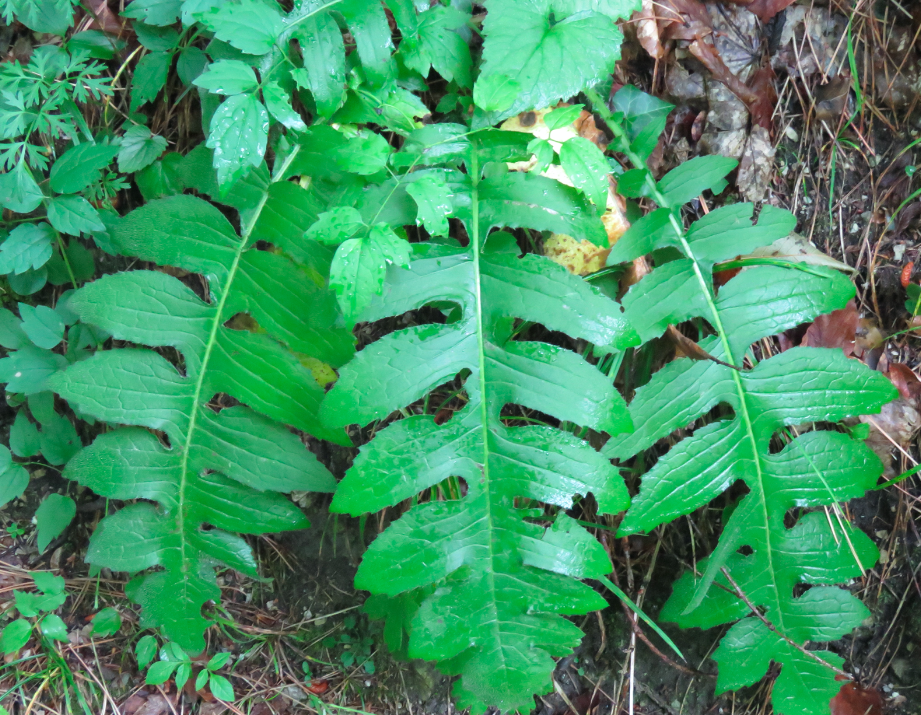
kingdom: Plantae
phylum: Tracheophyta
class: Magnoliopsida
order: Asterales
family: Asteraceae
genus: Cirsium
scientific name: Cirsium oleraceum
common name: Cabbage thistle
